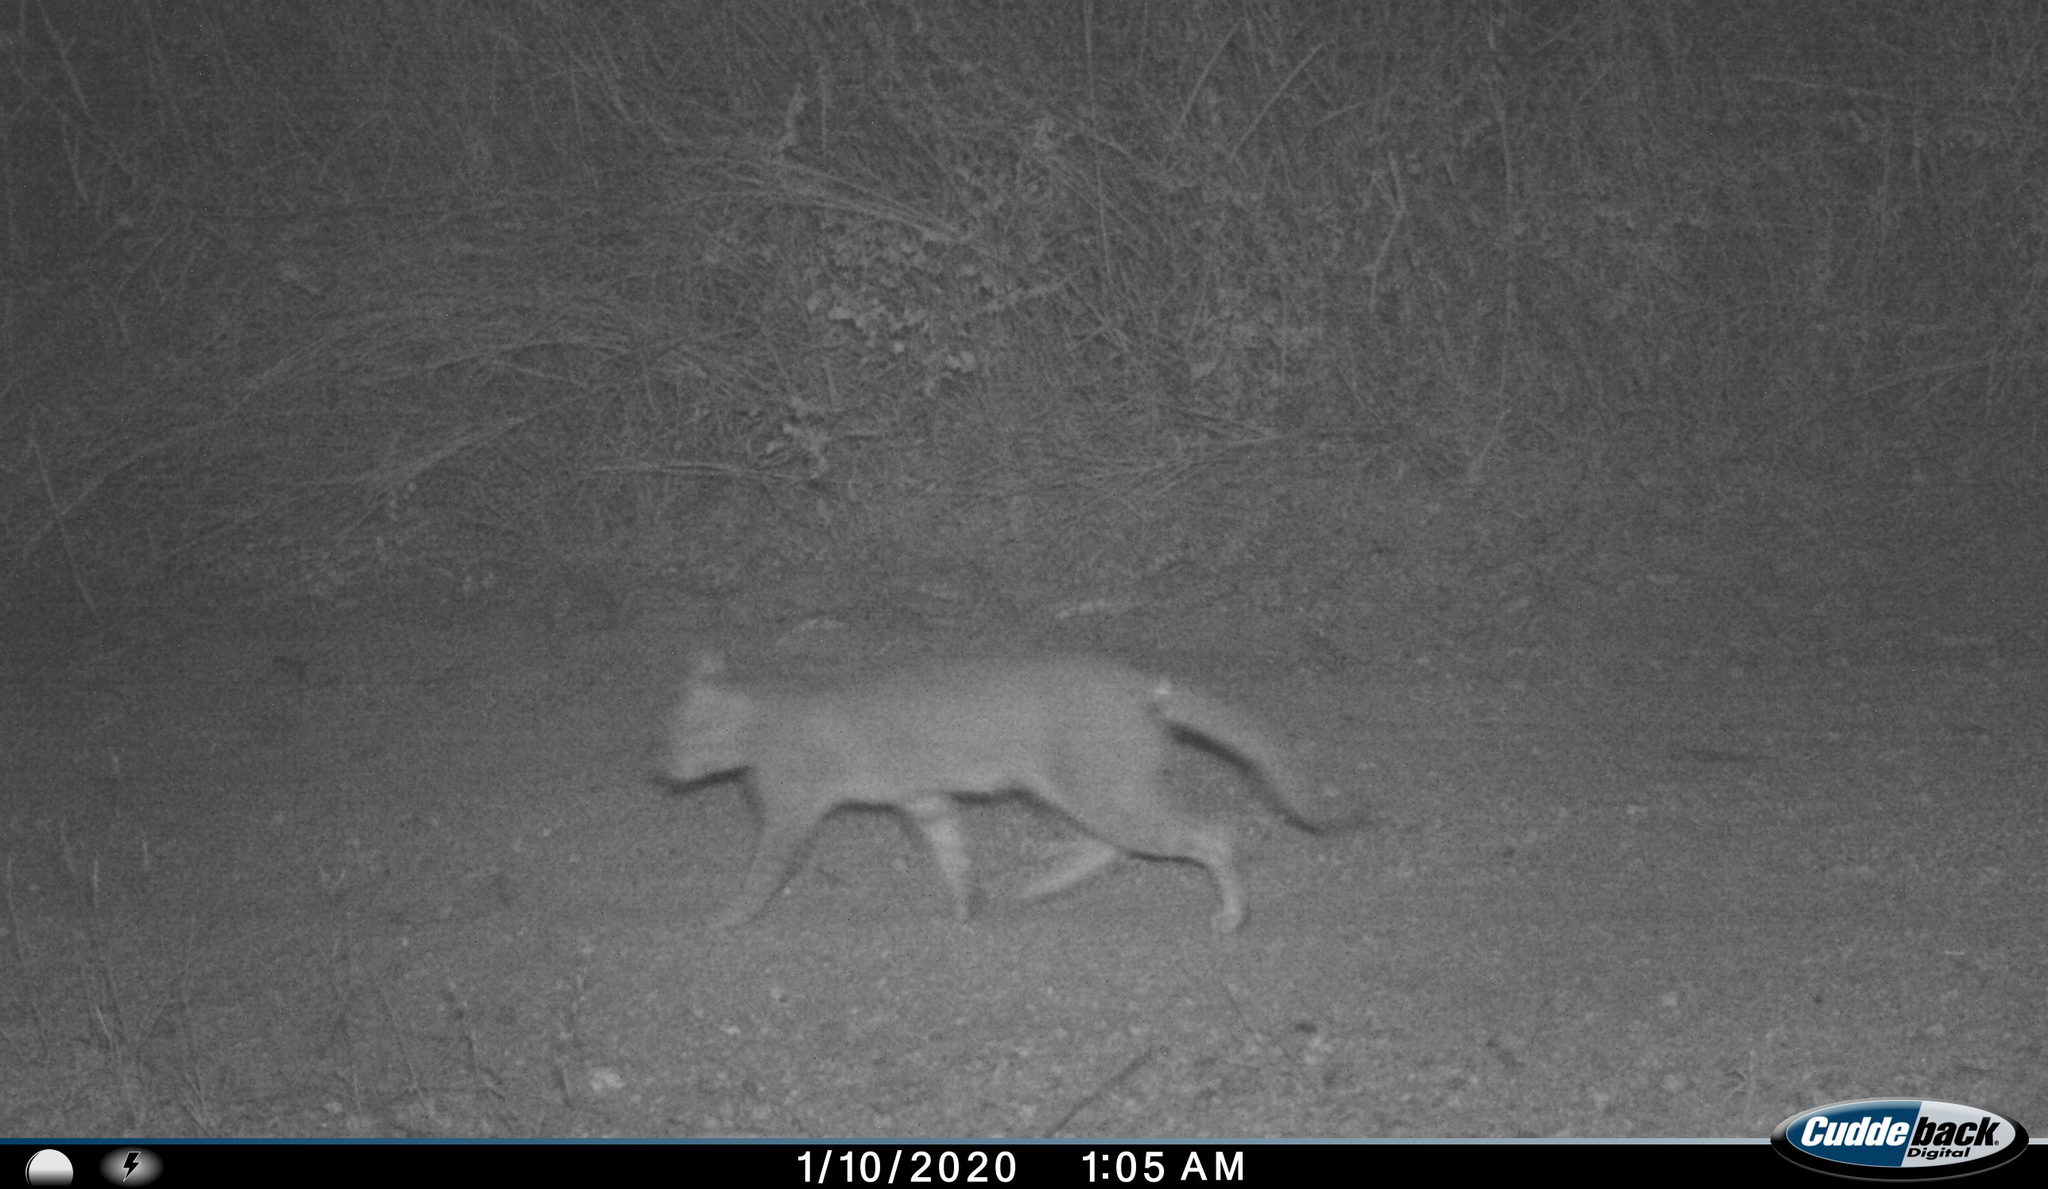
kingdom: Animalia
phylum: Chordata
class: Mammalia
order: Carnivora
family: Felidae
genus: Felis
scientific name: Felis chaus
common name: Jungle cat
